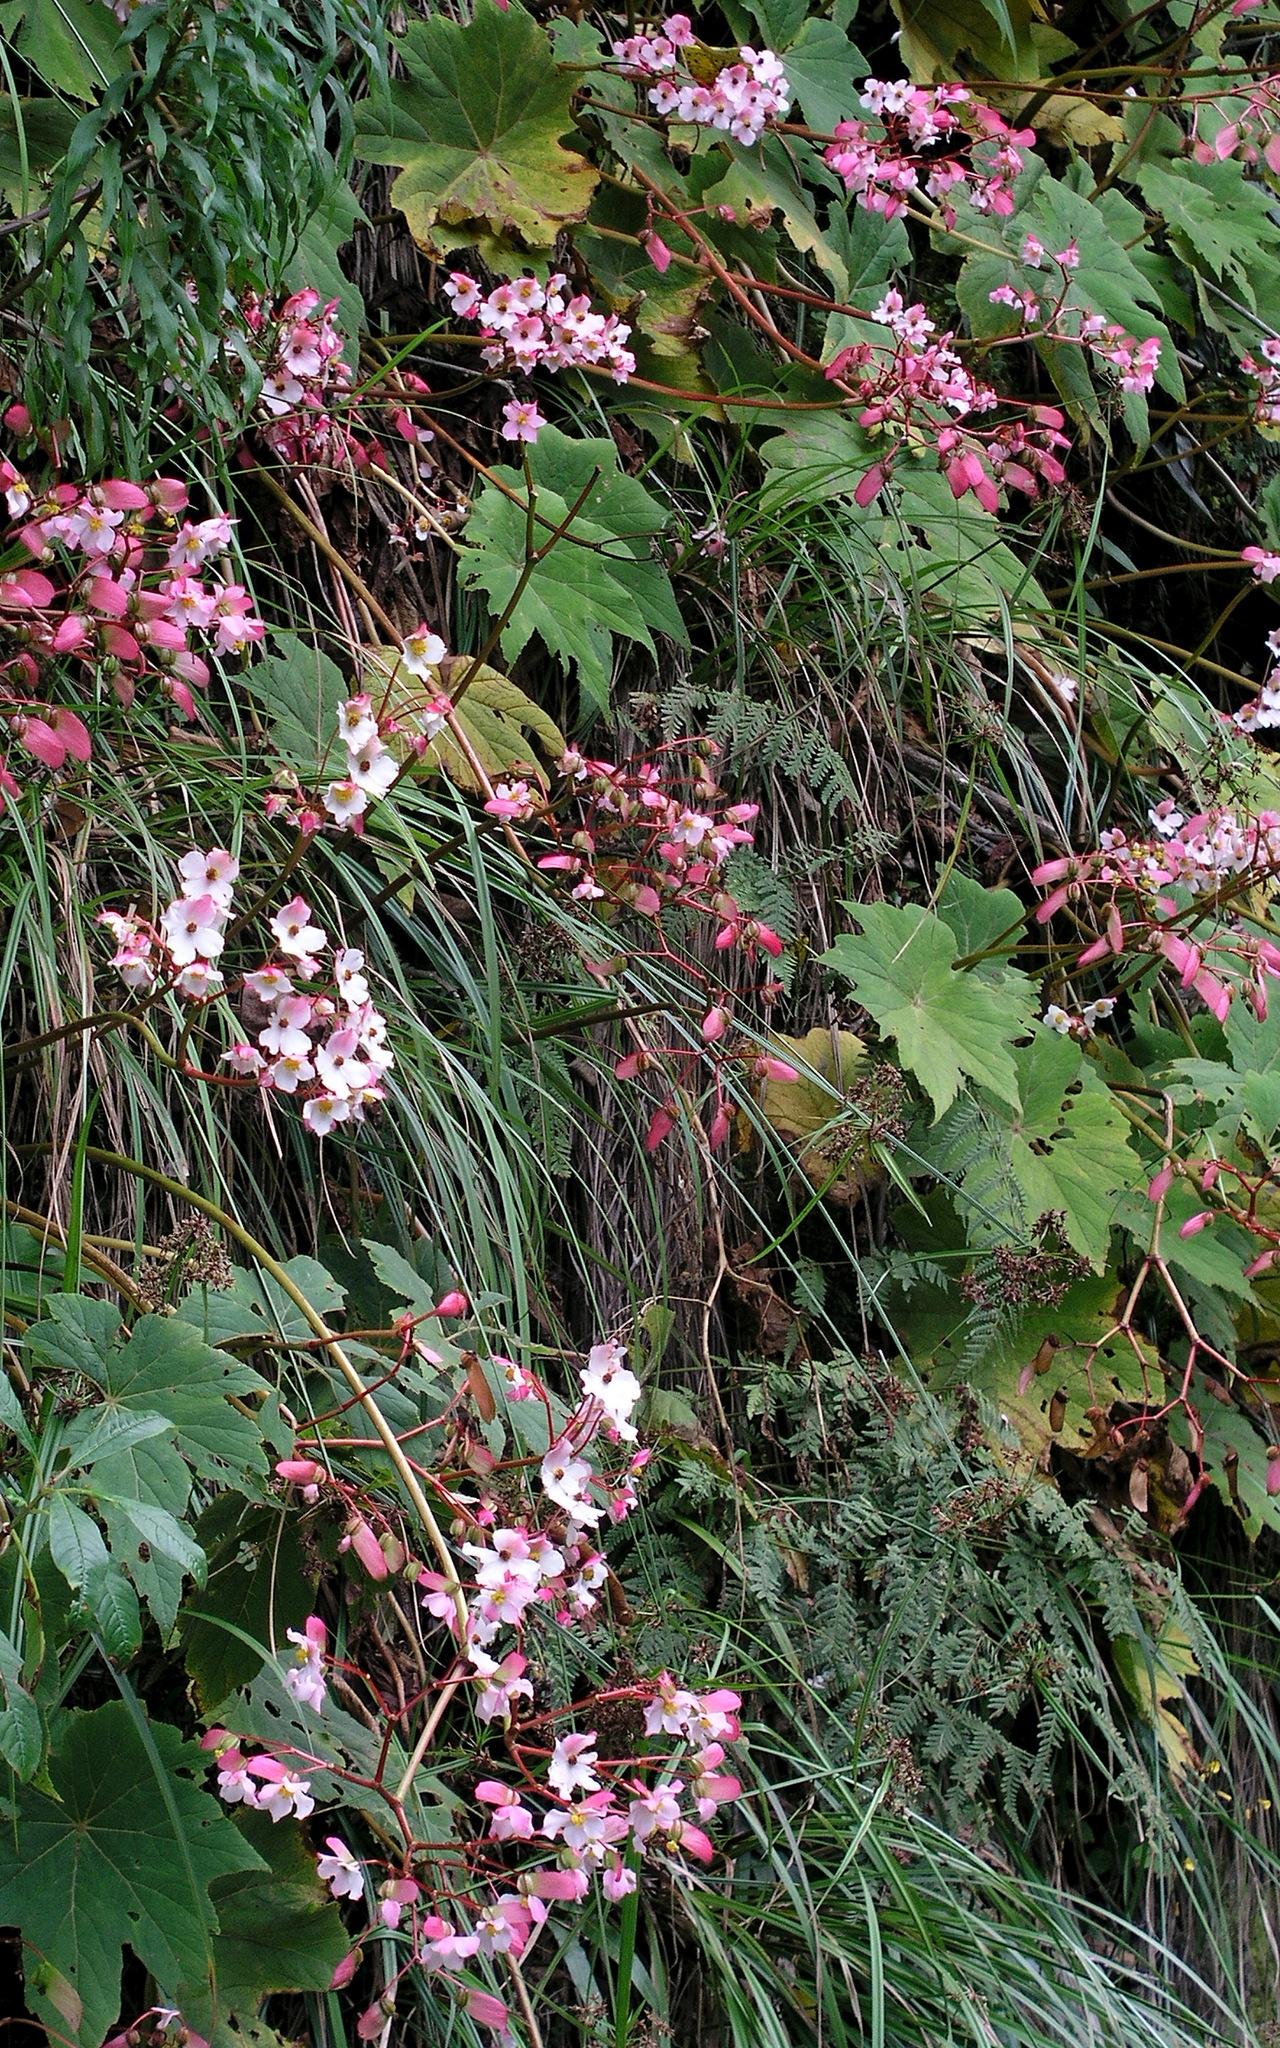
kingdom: Plantae
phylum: Tracheophyta
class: Magnoliopsida
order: Cucurbitales
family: Begoniaceae
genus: Begonia
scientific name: Begonia acerifolia
